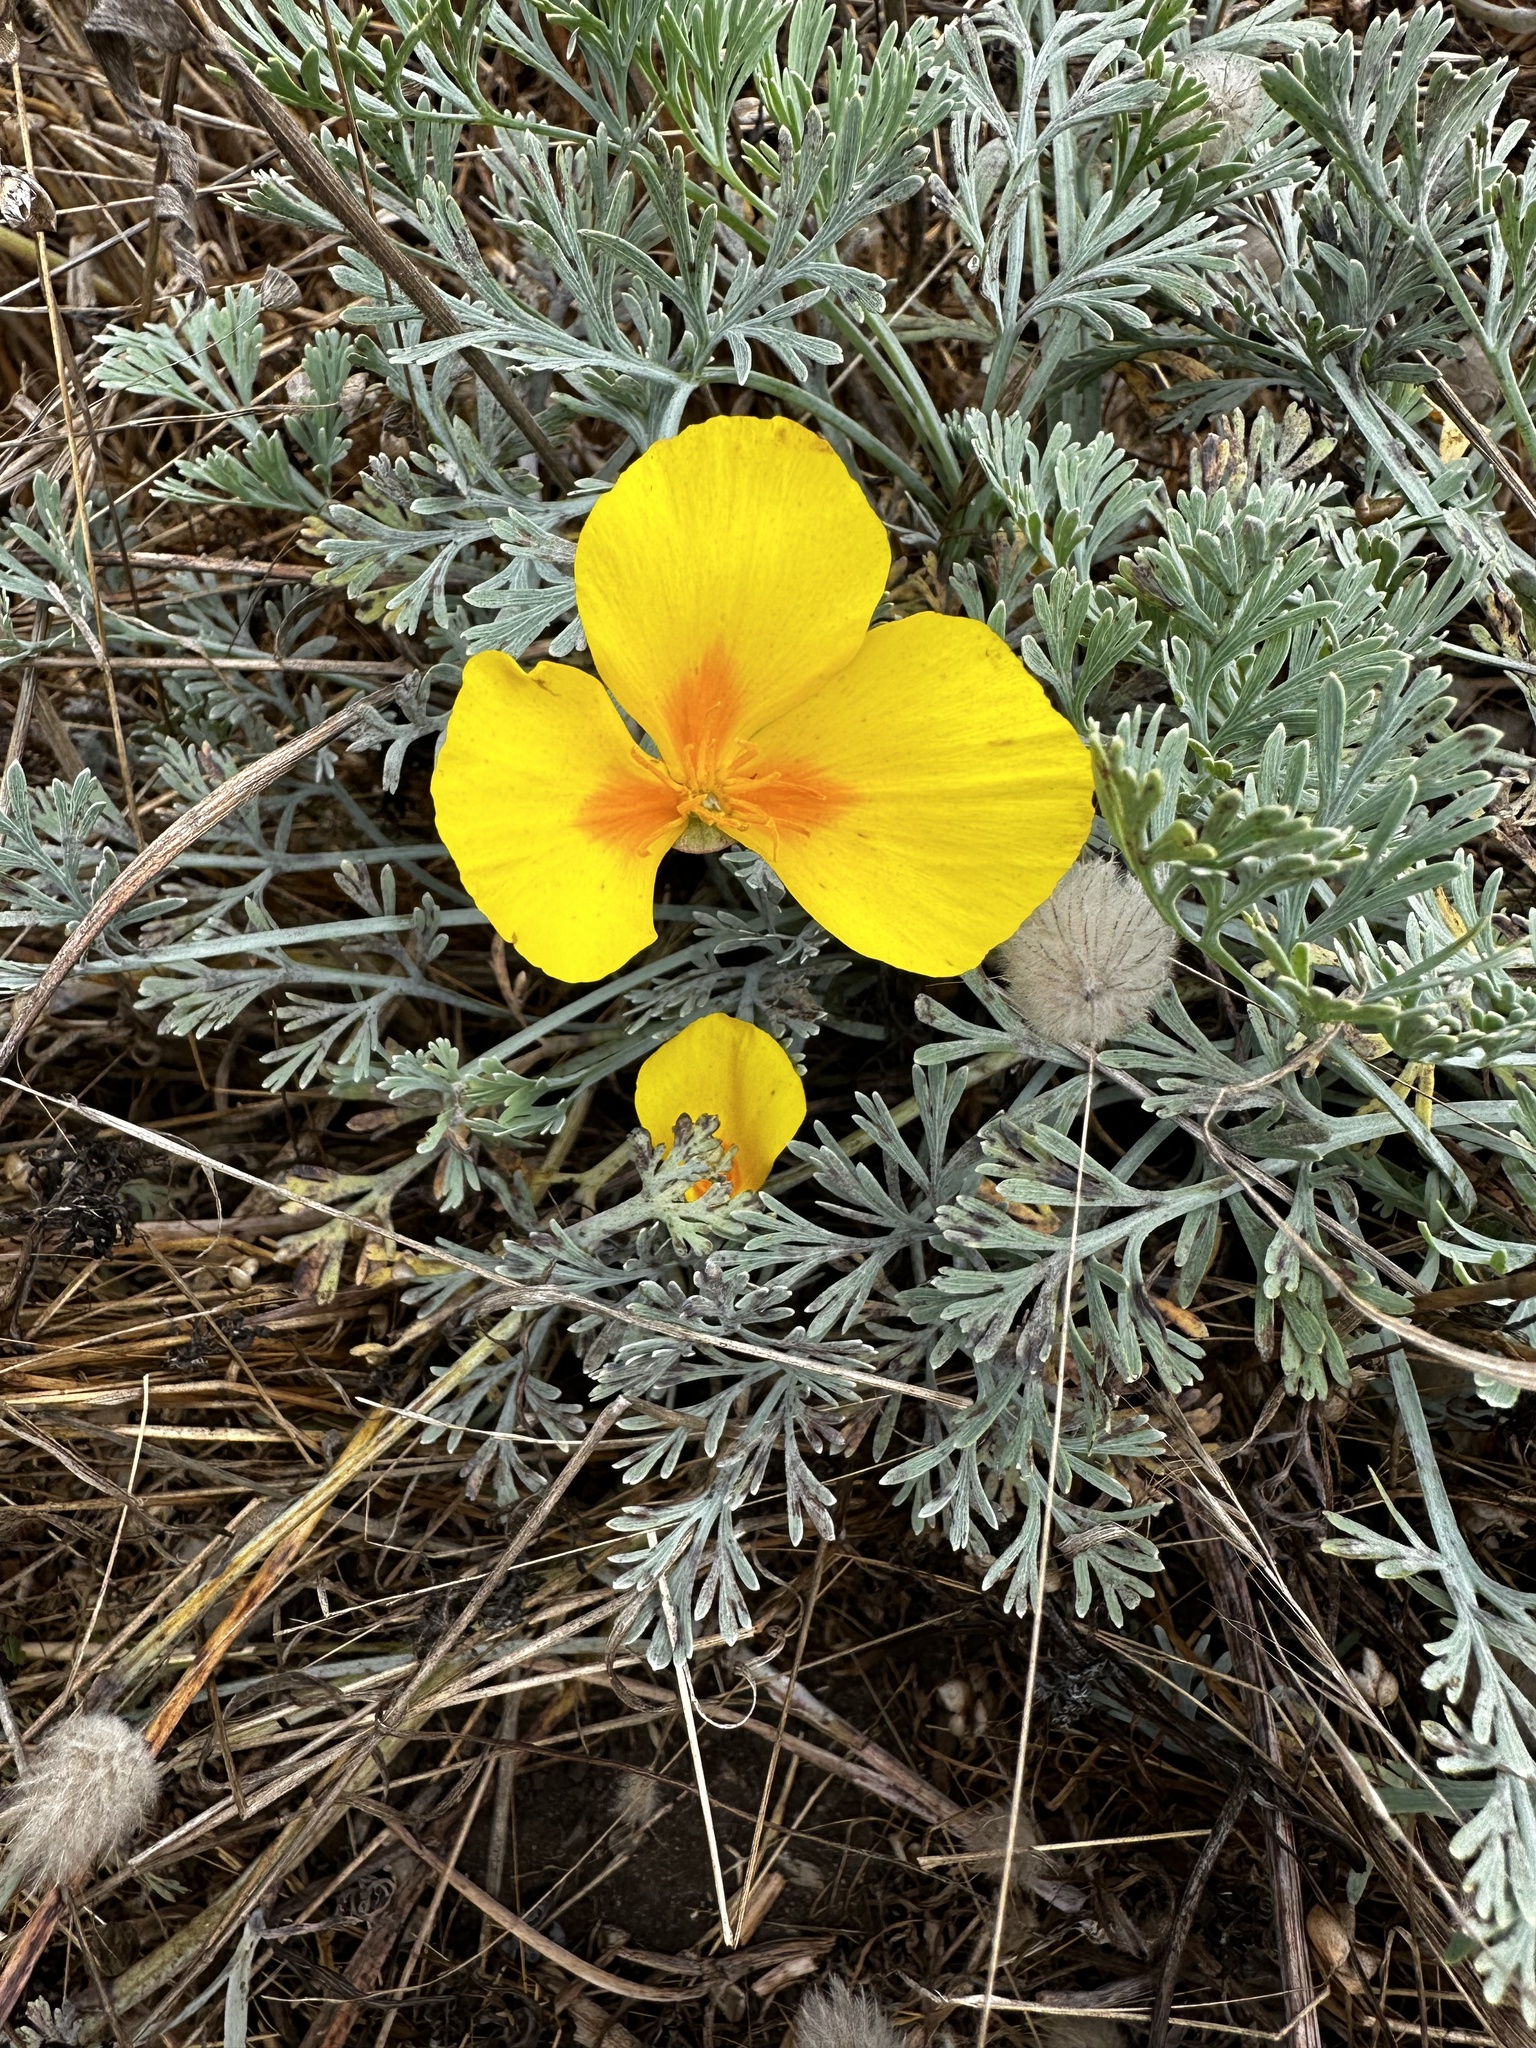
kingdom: Plantae
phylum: Tracheophyta
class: Magnoliopsida
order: Ranunculales
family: Papaveraceae
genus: Eschscholzia
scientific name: Eschscholzia californica
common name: California poppy
